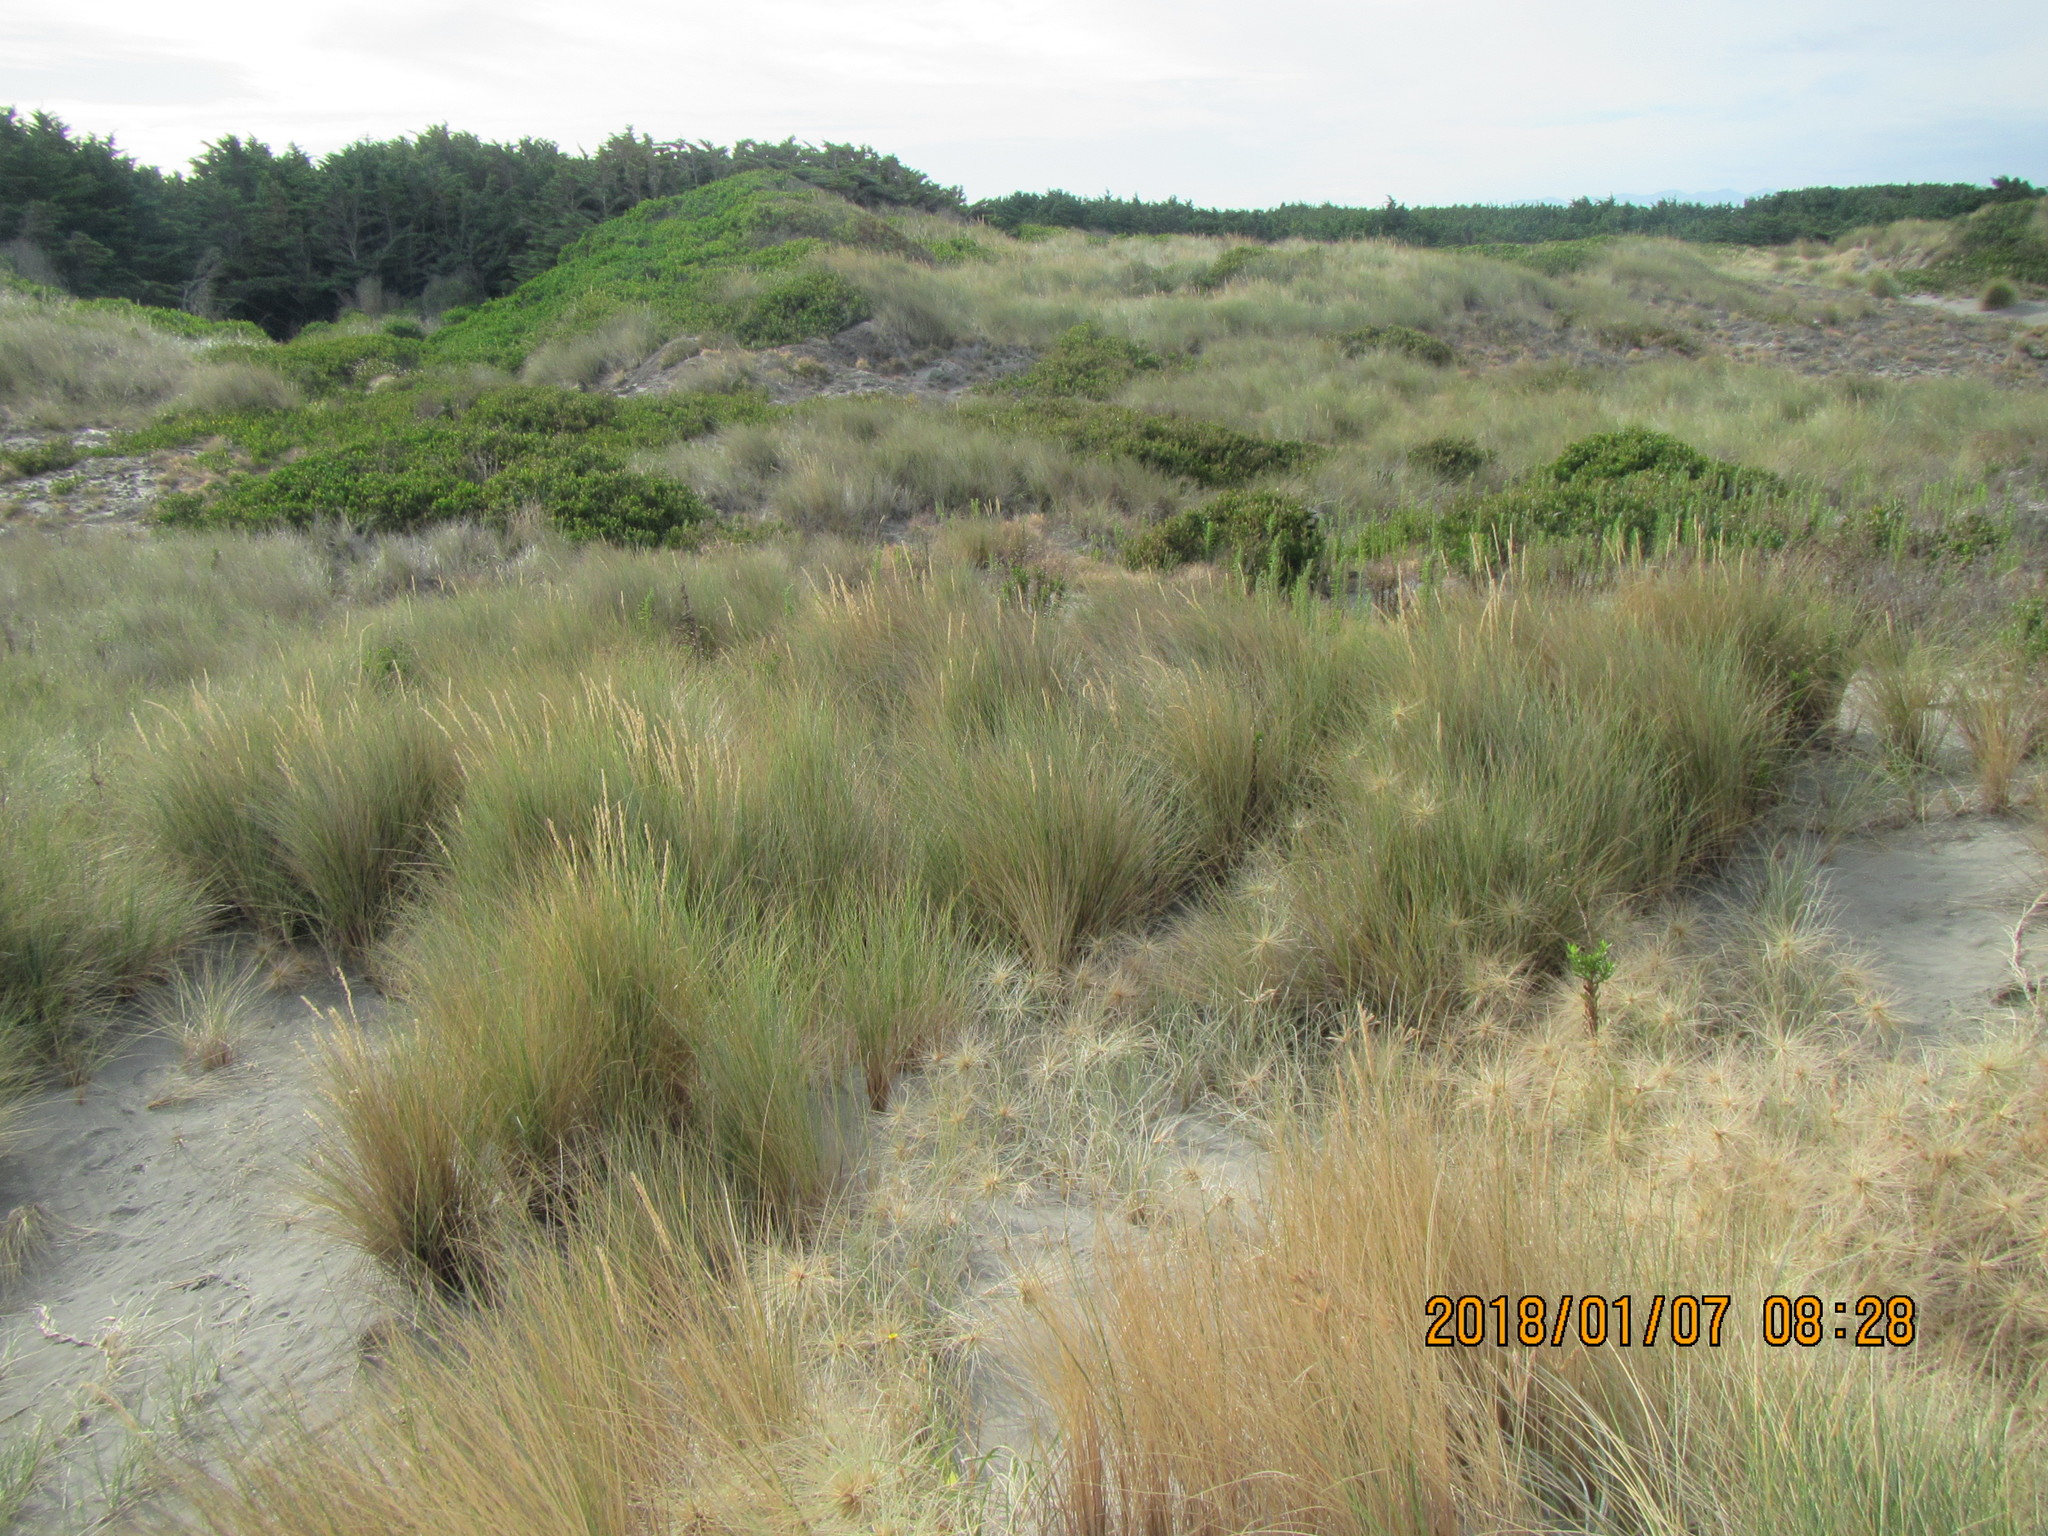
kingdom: Plantae
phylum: Tracheophyta
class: Liliopsida
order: Poales
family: Poaceae
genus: Calamagrostis
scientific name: Calamagrostis arenaria
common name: European beachgrass
